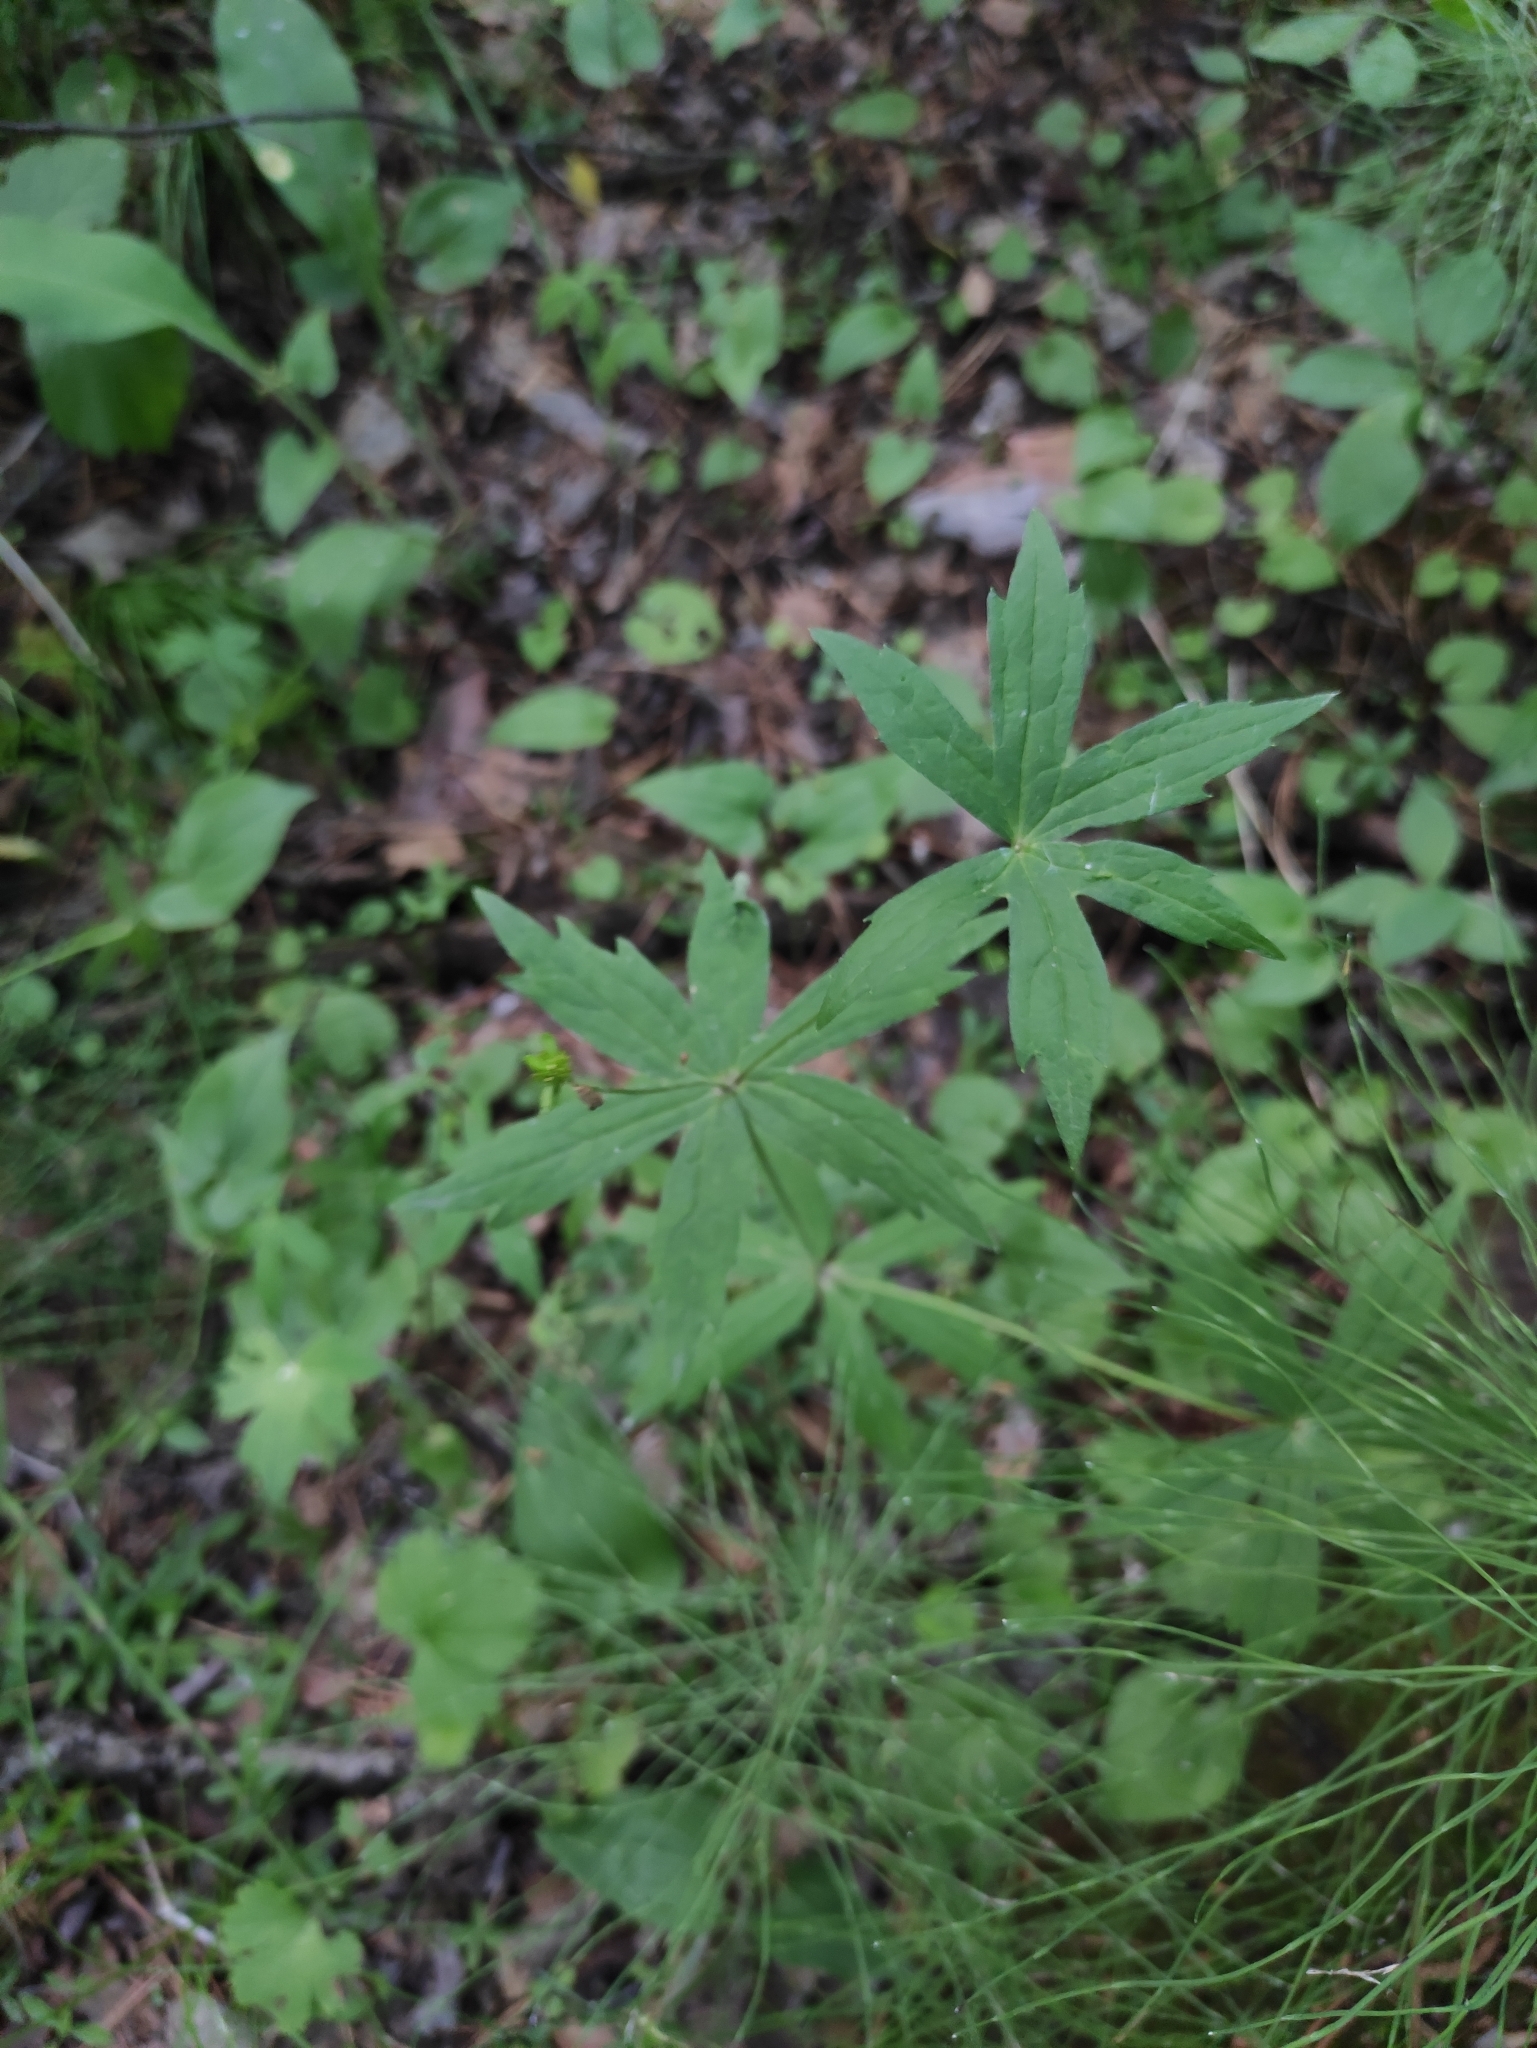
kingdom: Plantae
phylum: Tracheophyta
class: Magnoliopsida
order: Ranunculales
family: Ranunculaceae
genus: Anemonastrum
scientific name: Anemonastrum dichotomum
